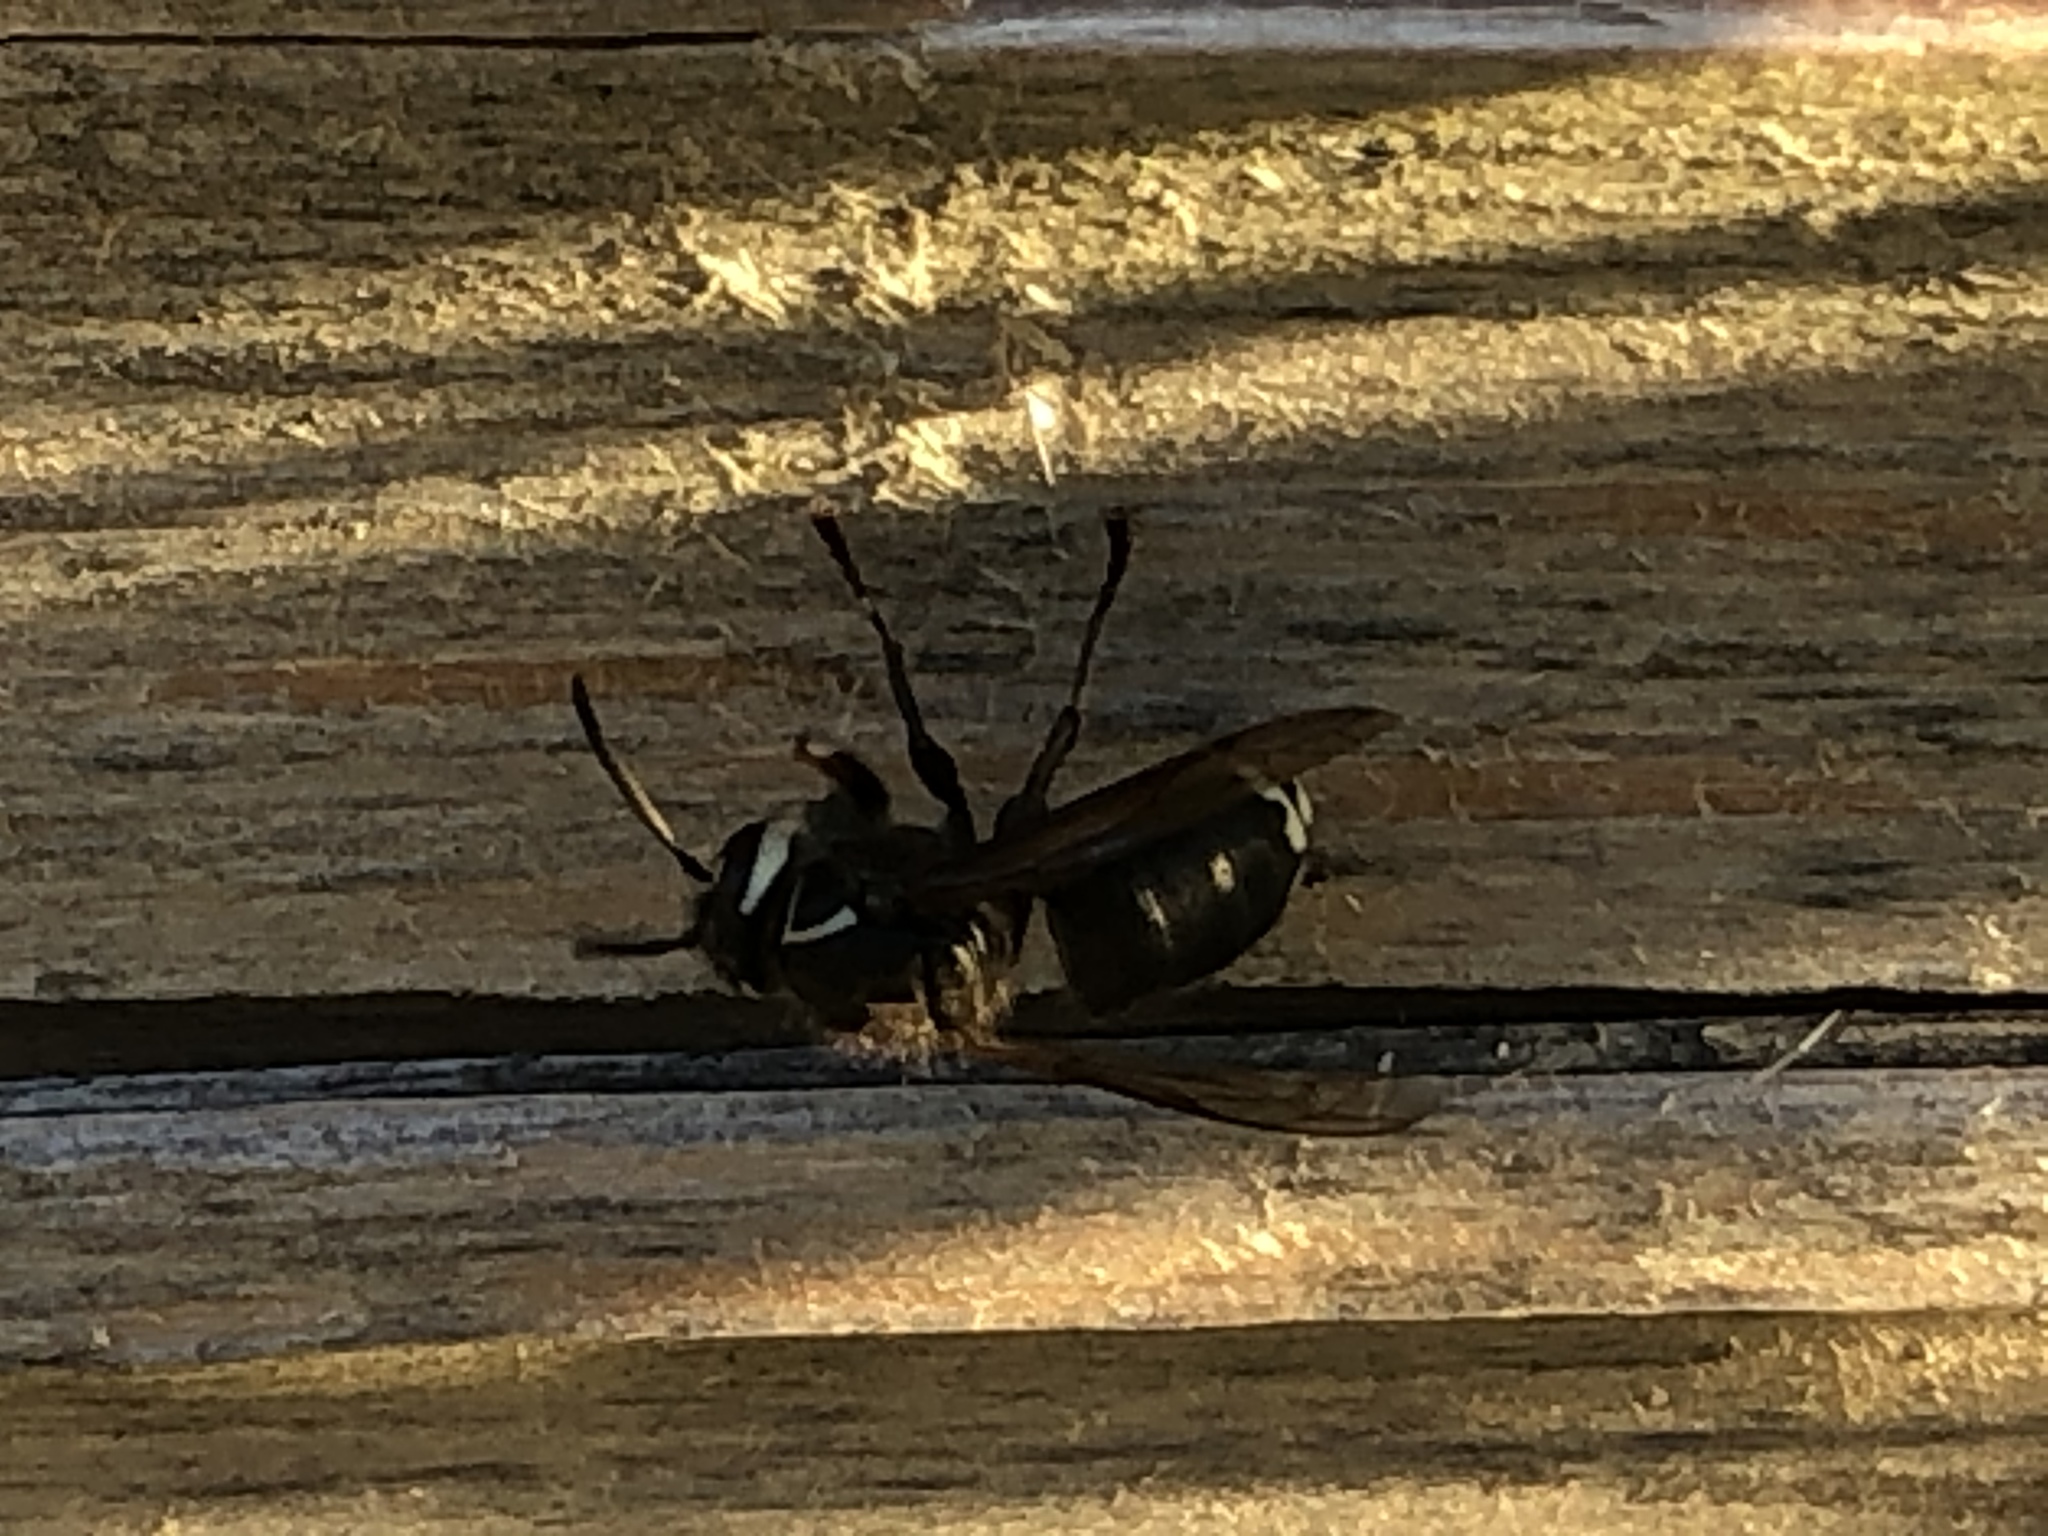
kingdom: Animalia
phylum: Arthropoda
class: Insecta
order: Hymenoptera
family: Vespidae
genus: Dolichovespula
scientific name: Dolichovespula maculata
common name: Bald-faced hornet
